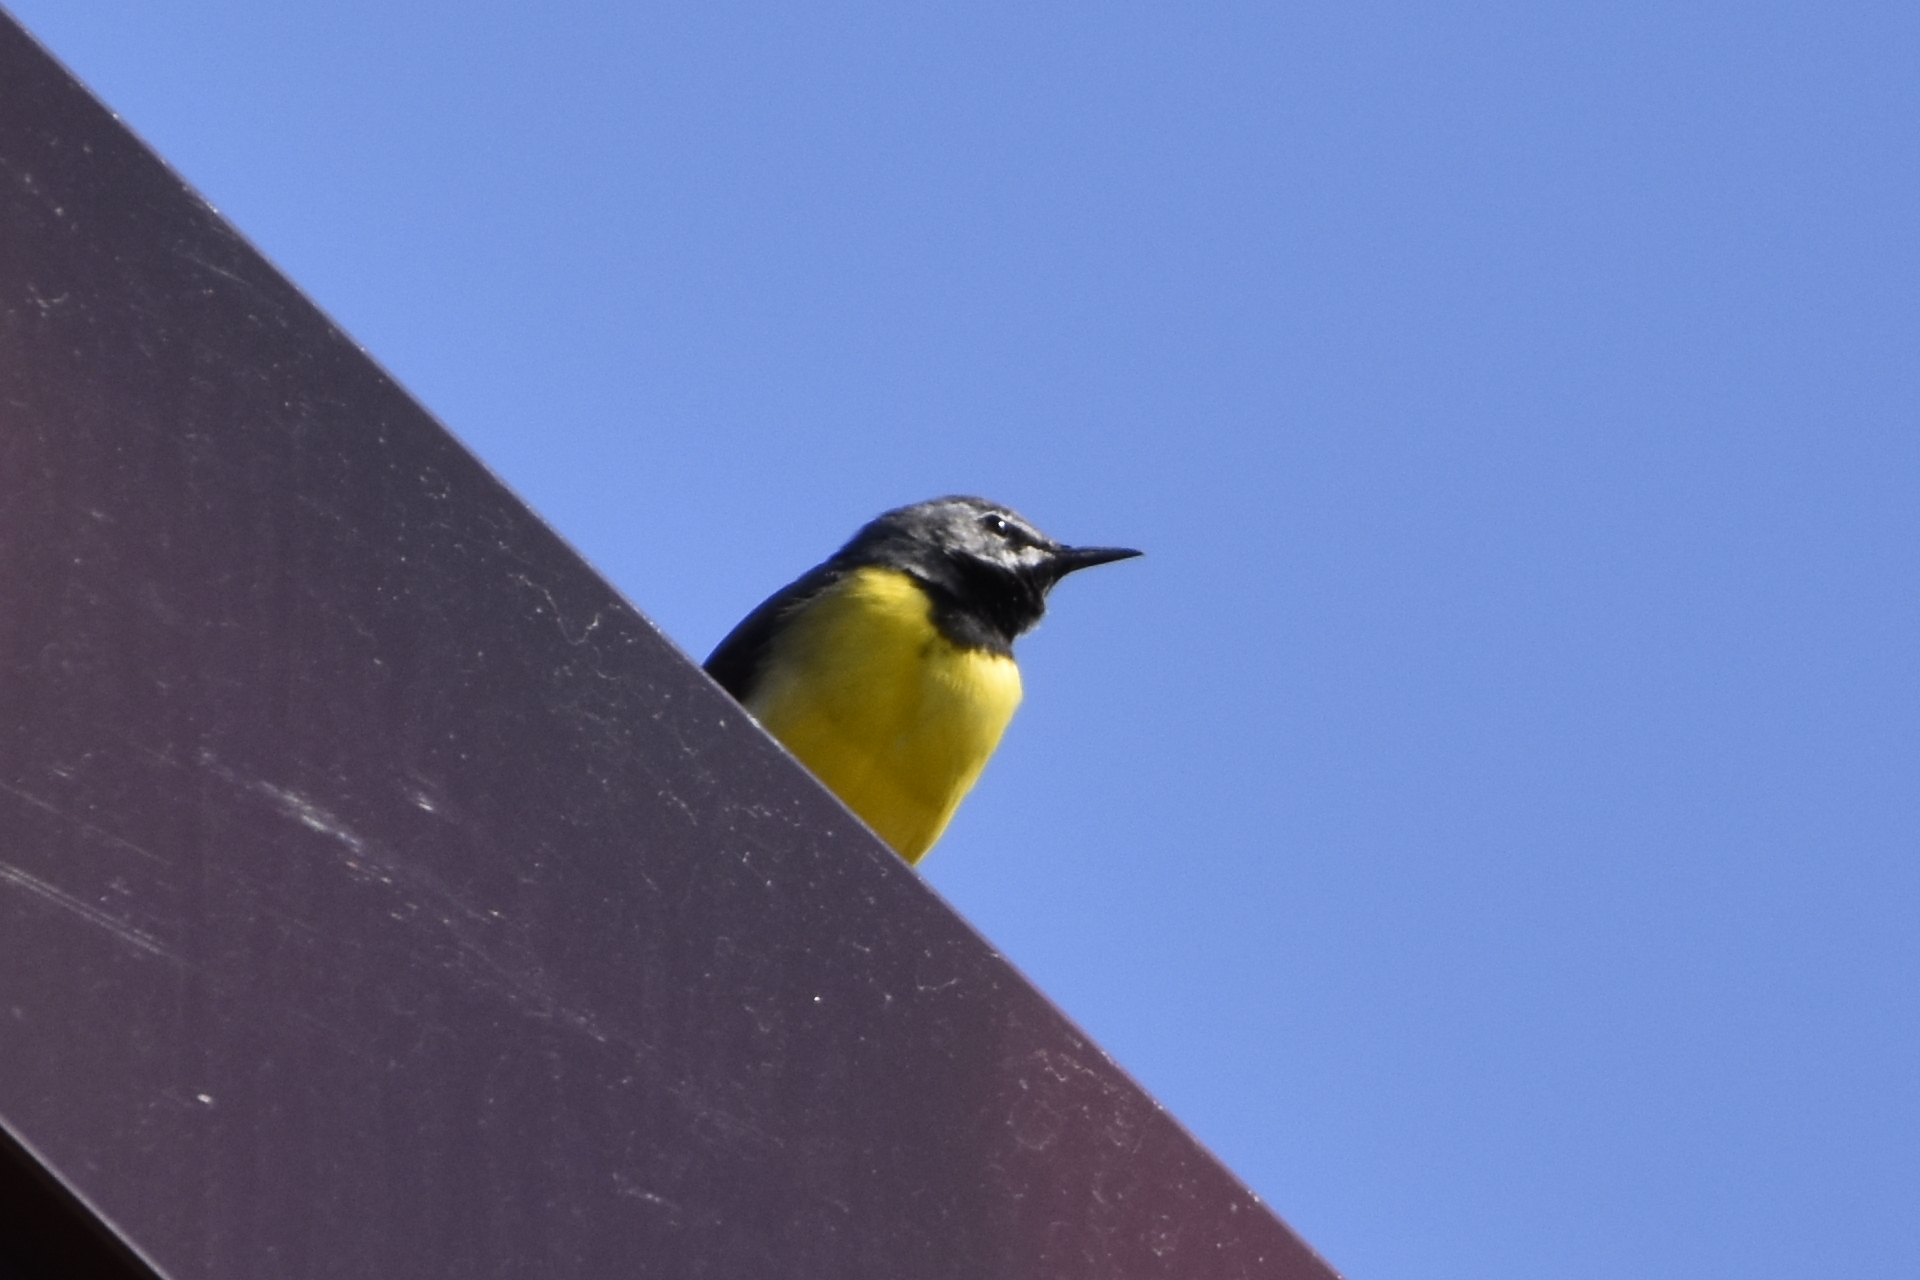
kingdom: Animalia
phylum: Chordata
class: Aves
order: Passeriformes
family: Motacillidae
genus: Motacilla
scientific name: Motacilla cinerea
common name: Grey wagtail
